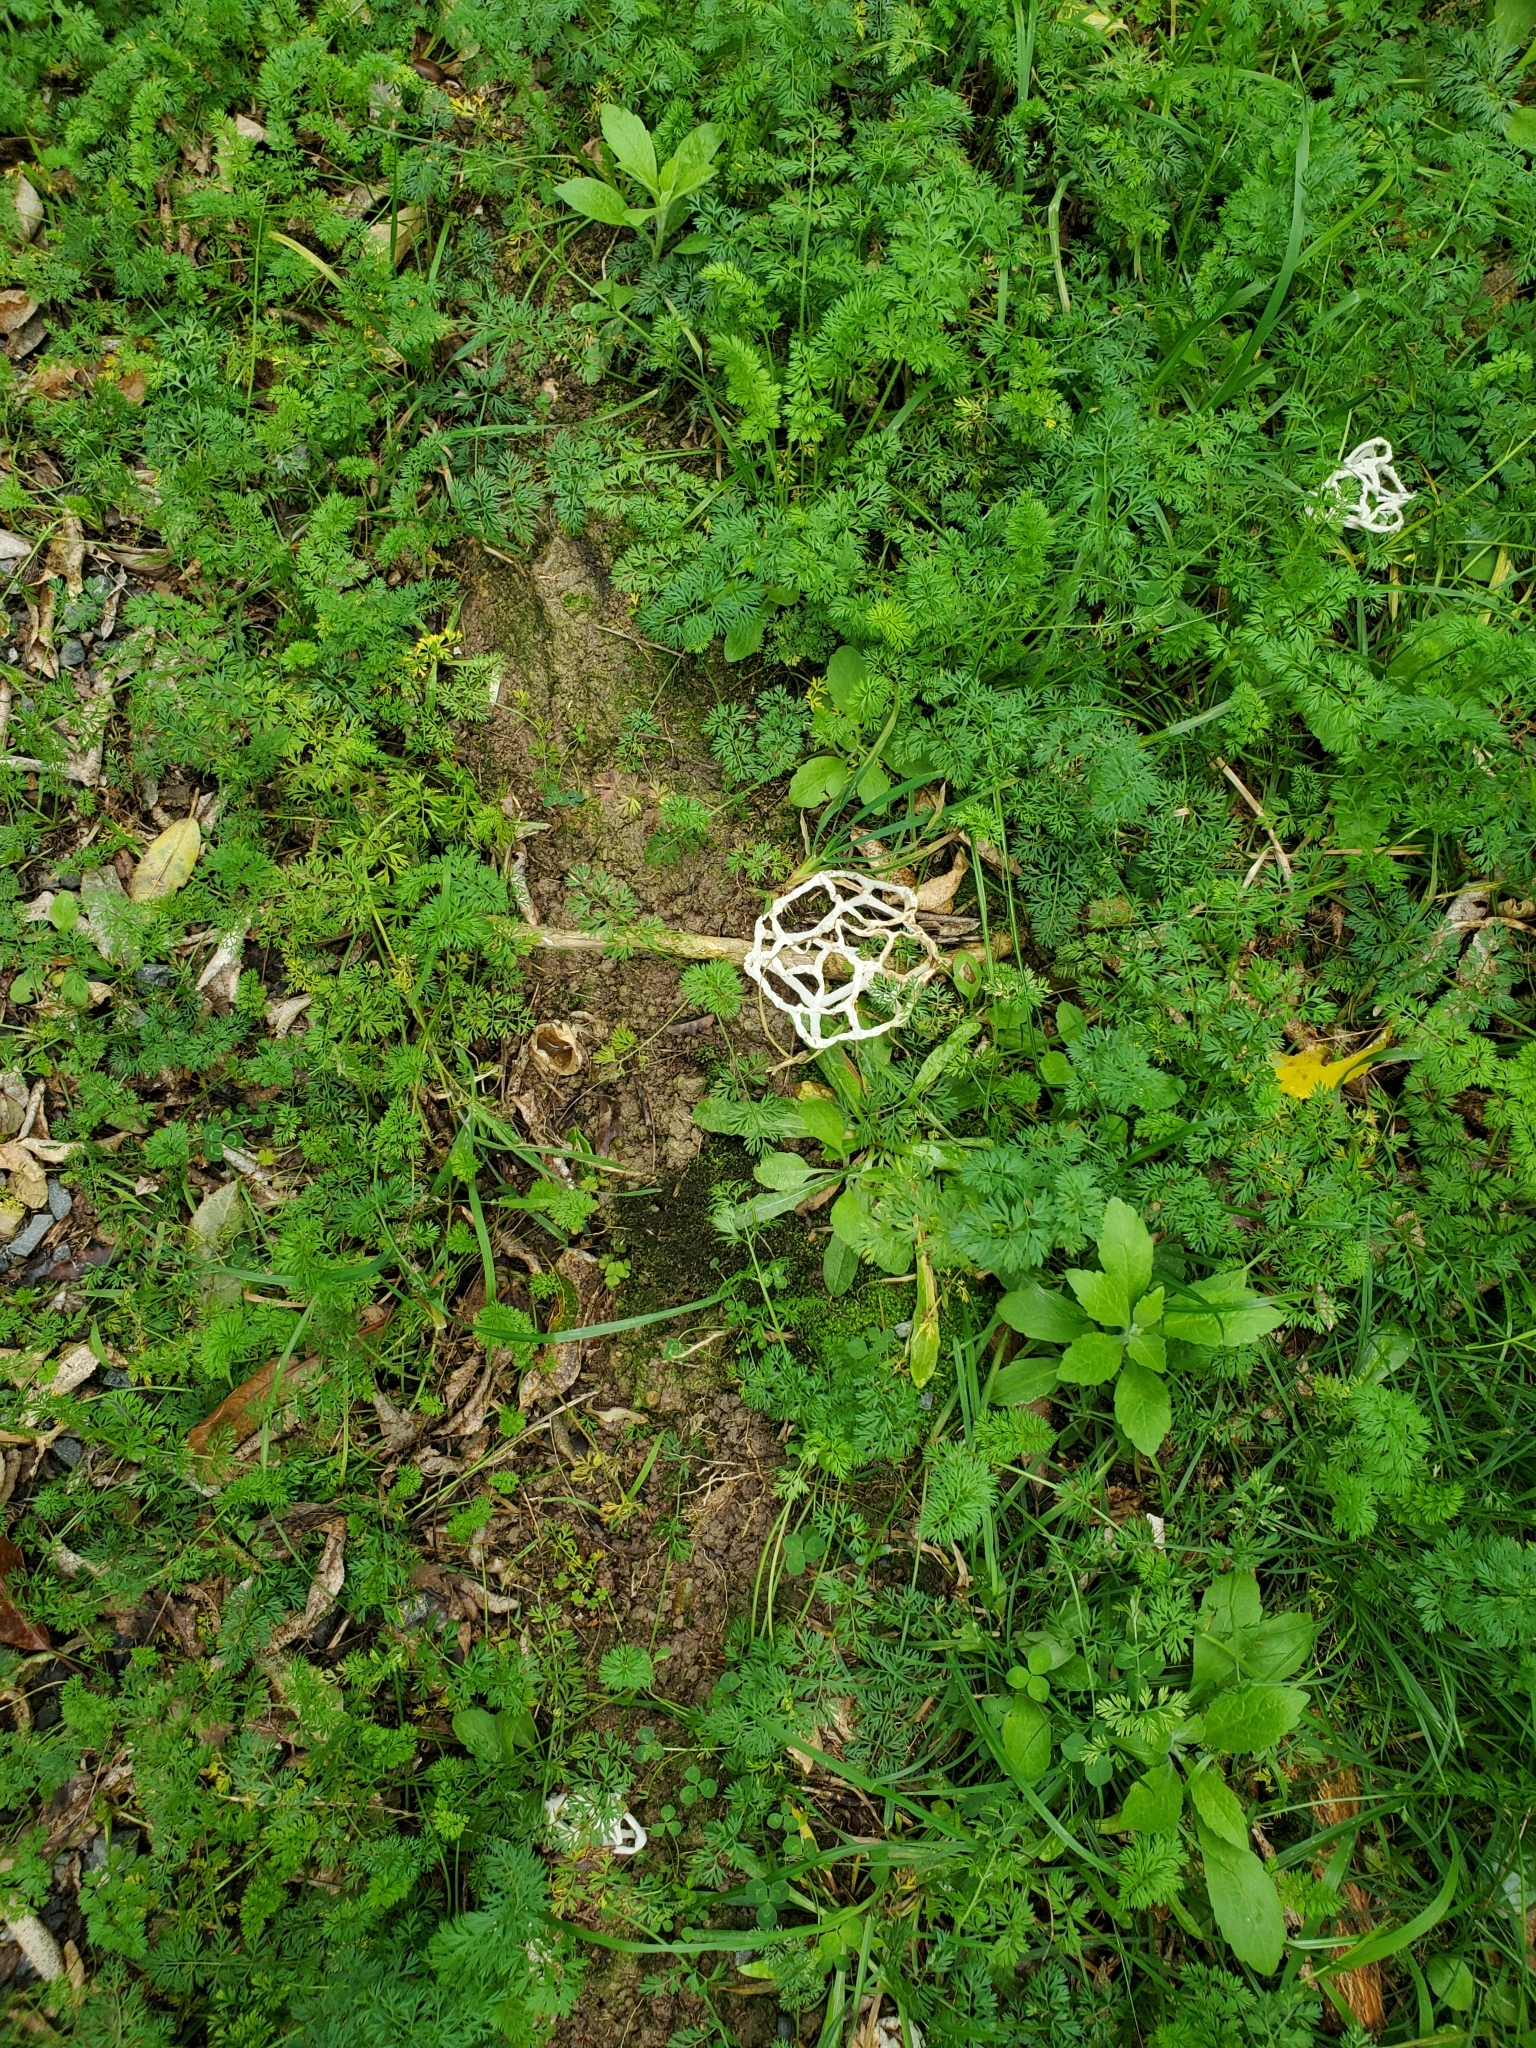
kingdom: Fungi
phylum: Basidiomycota
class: Agaricomycetes
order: Phallales
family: Phallaceae
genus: Ileodictyon
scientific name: Ileodictyon cibarium
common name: Basket fungus
